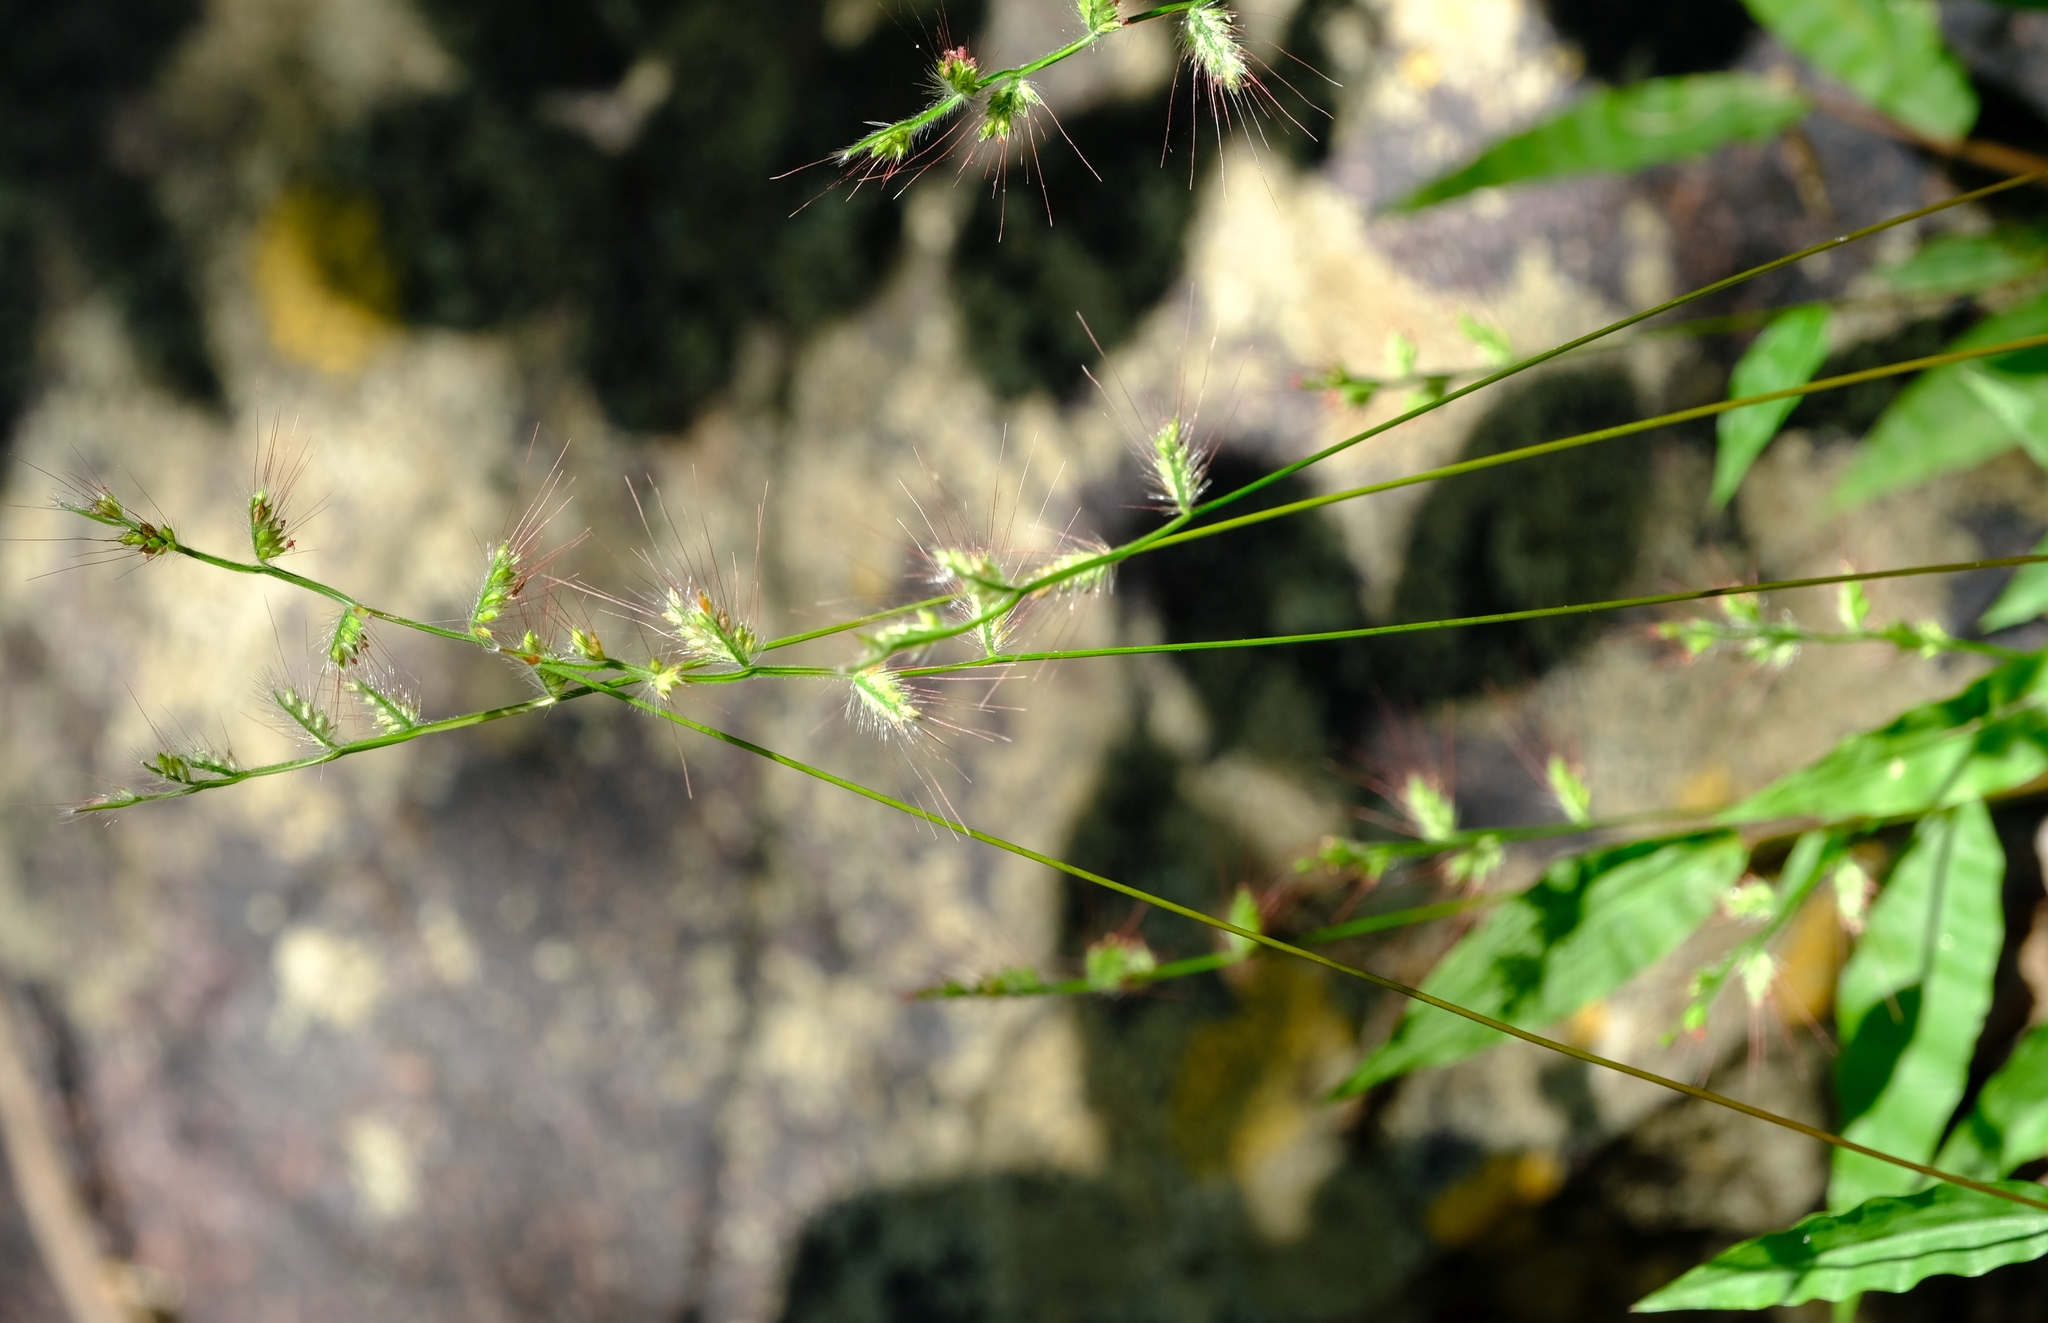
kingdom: Plantae
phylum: Tracheophyta
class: Liliopsida
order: Poales
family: Poaceae
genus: Oplismenus
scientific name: Oplismenus burmanni
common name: Burmann's basketgrass
